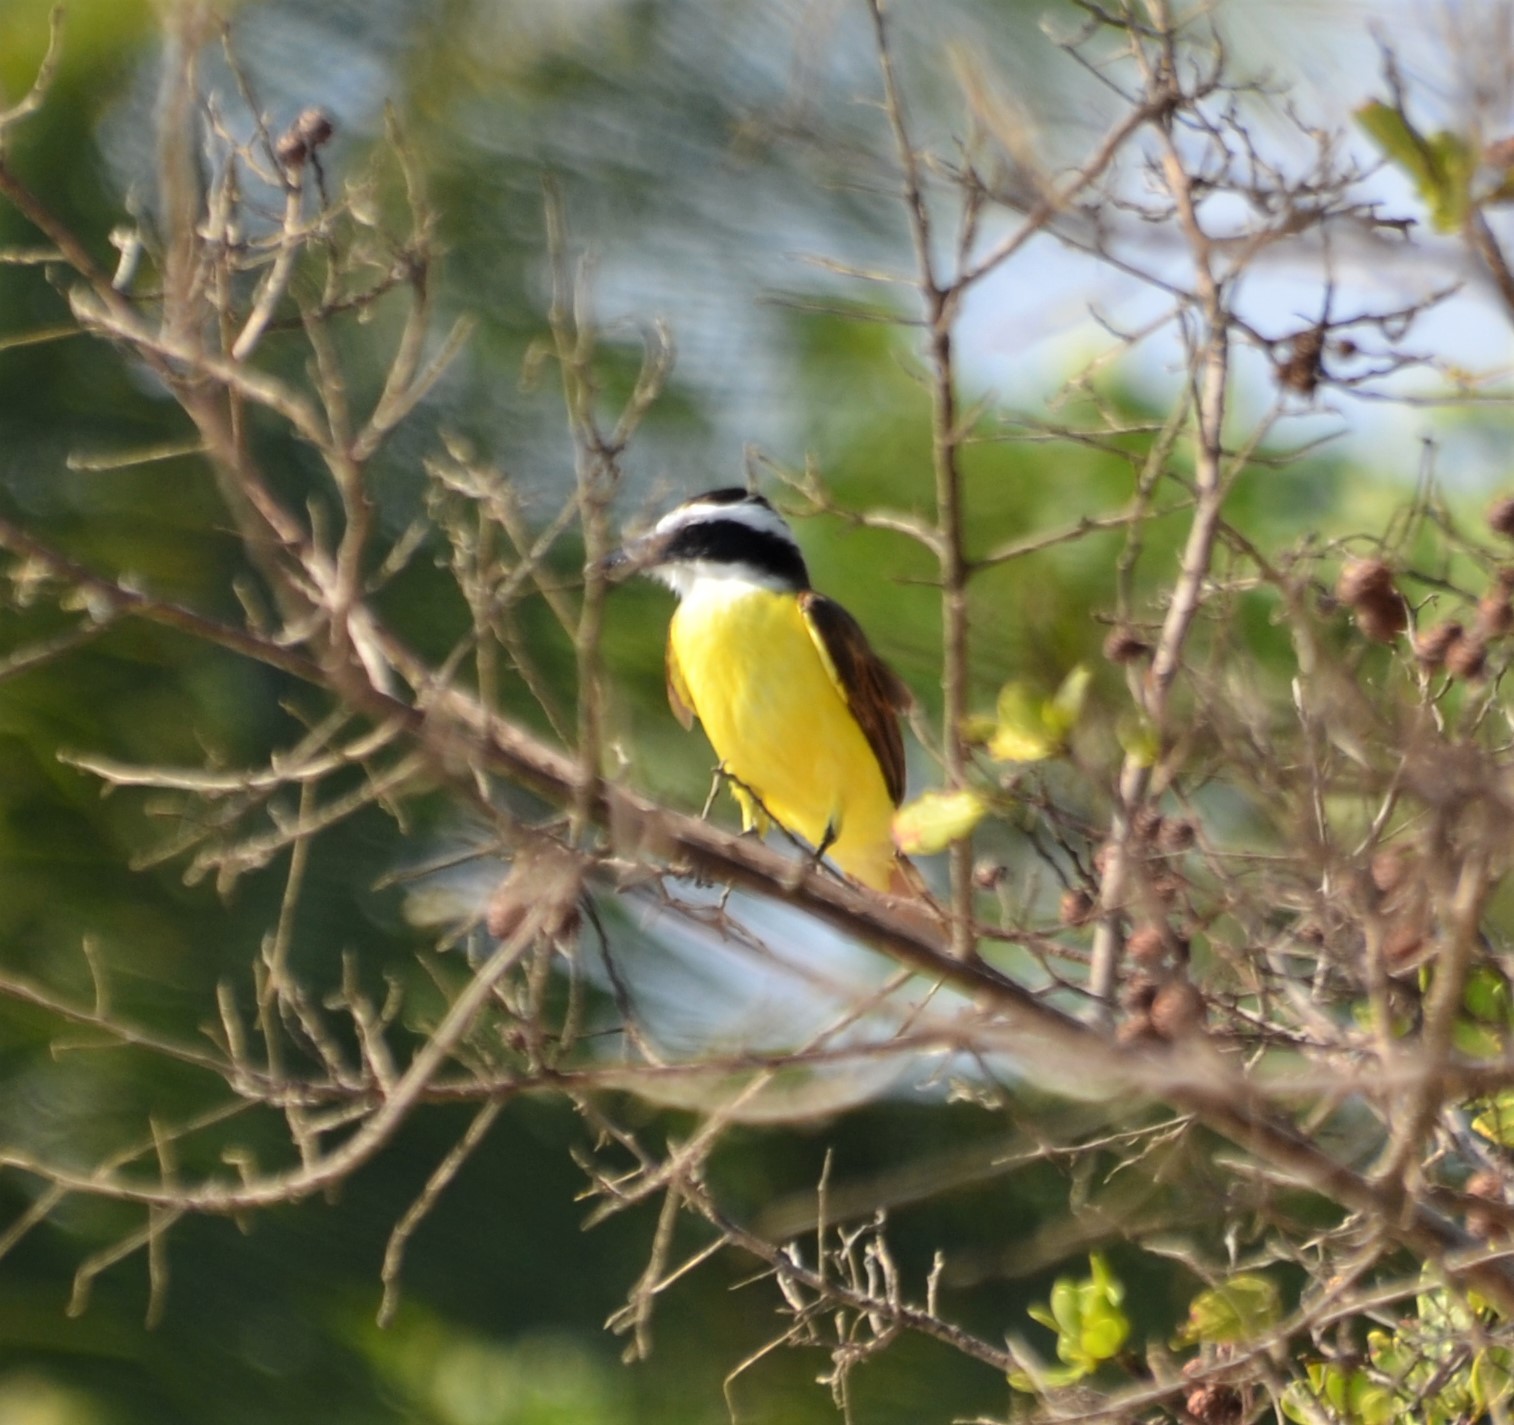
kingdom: Animalia
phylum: Chordata
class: Aves
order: Passeriformes
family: Tyrannidae
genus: Pitangus
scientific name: Pitangus sulphuratus
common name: Great kiskadee
